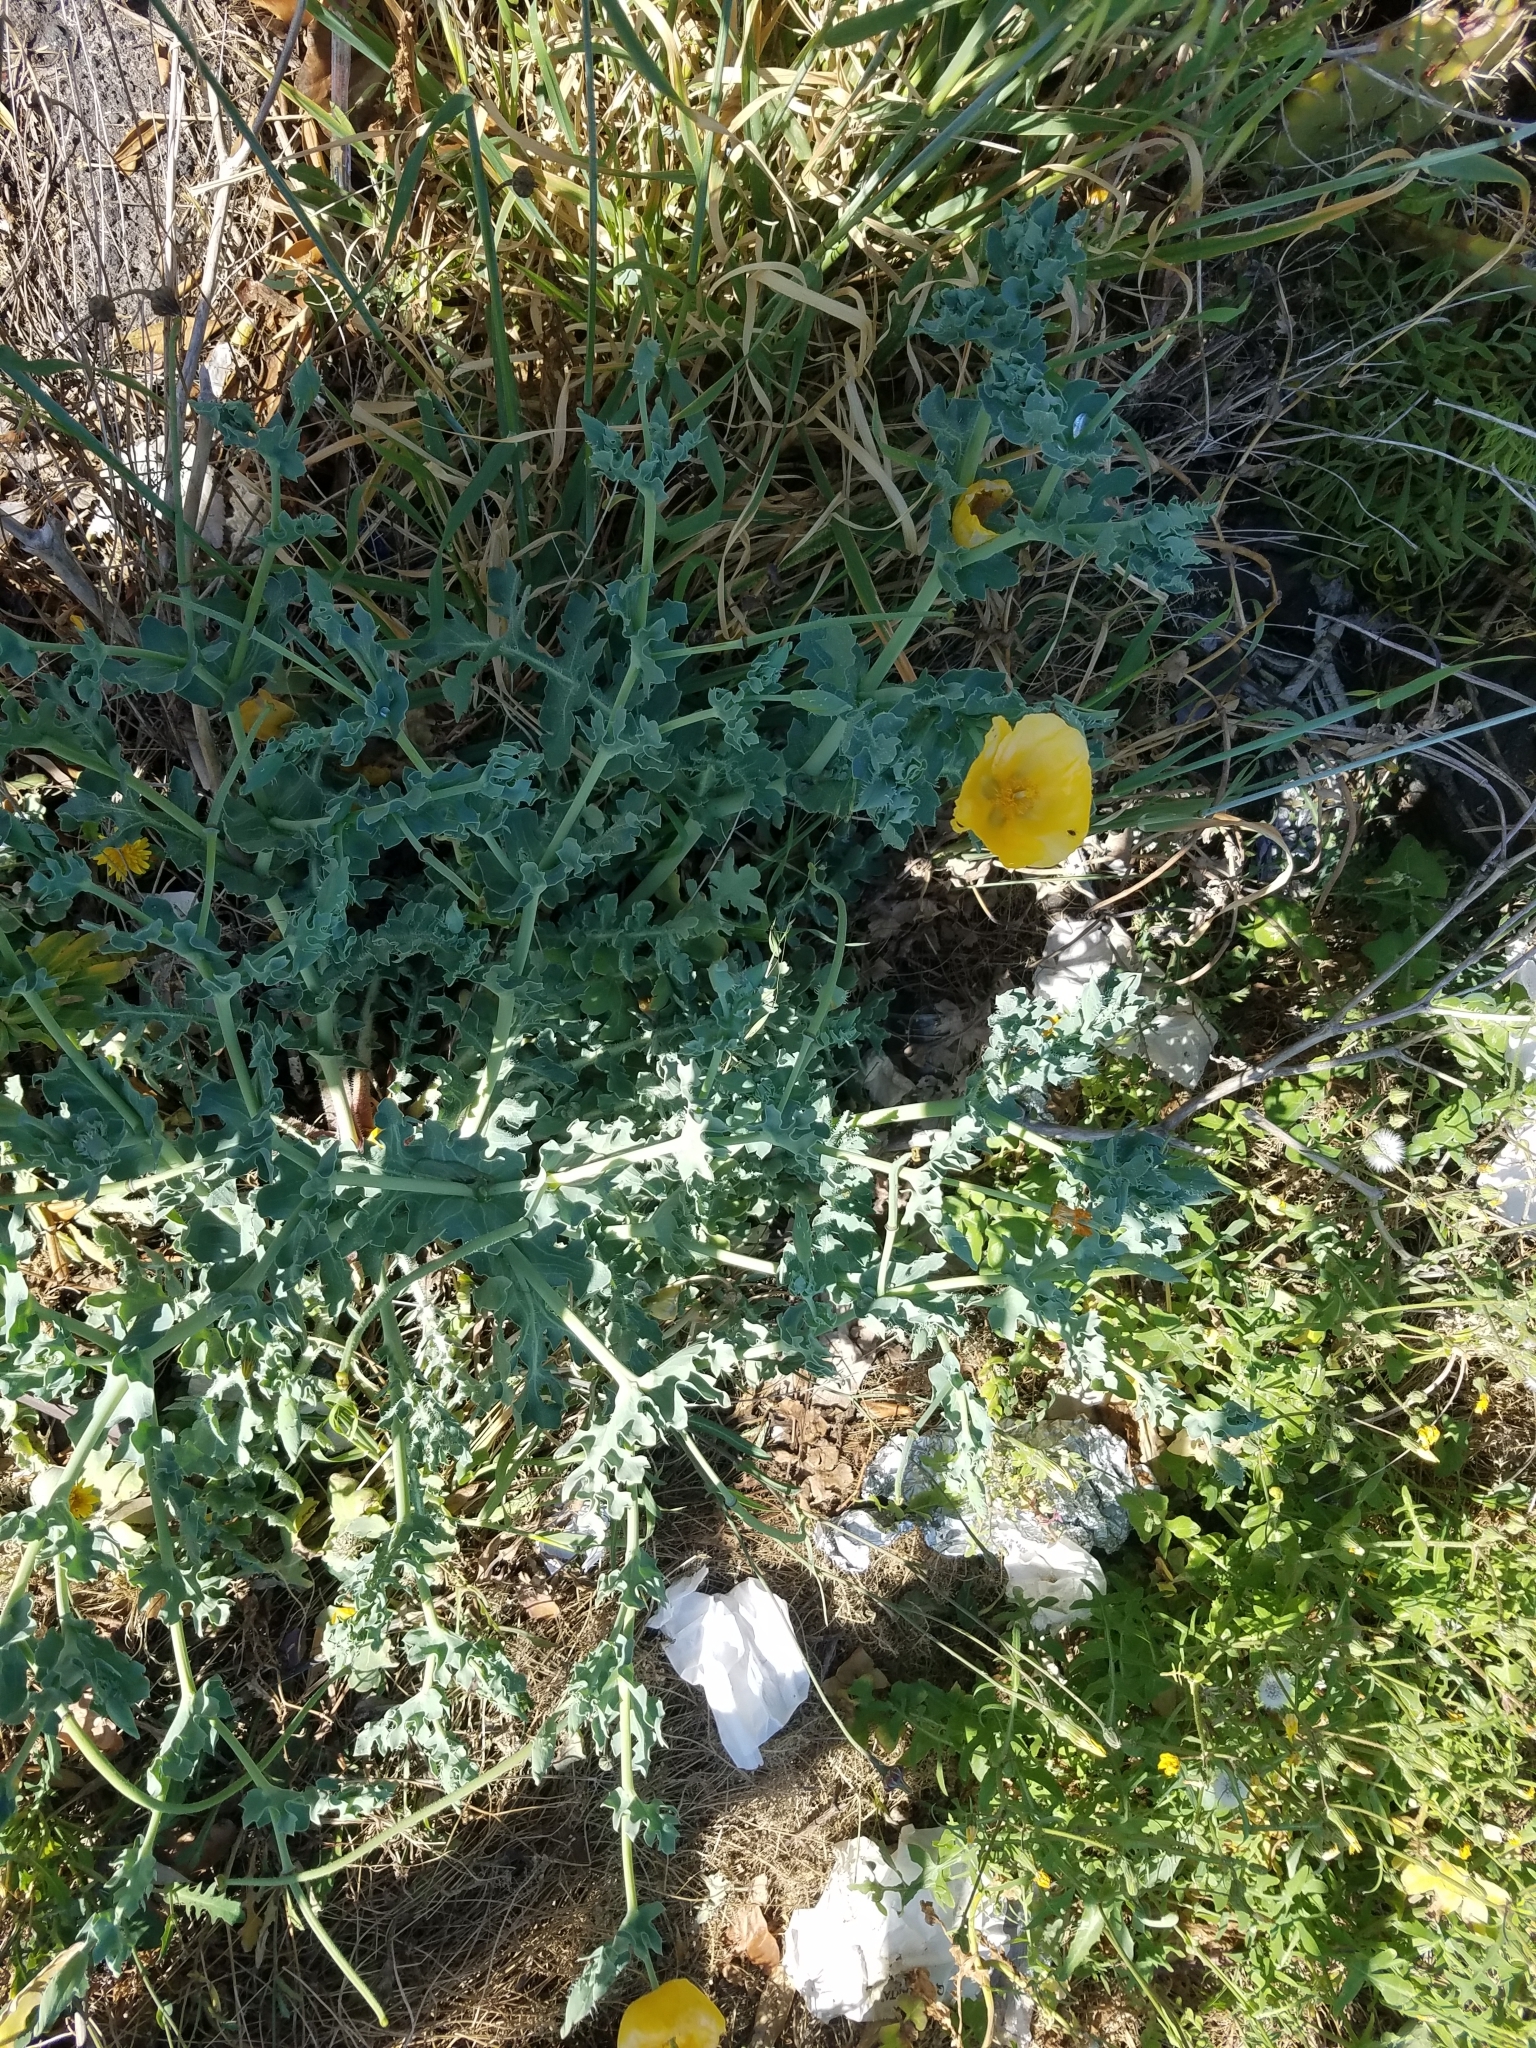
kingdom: Plantae
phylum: Tracheophyta
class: Magnoliopsida
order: Ranunculales
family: Papaveraceae
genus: Glaucium
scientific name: Glaucium flavum
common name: Yellow horned-poppy
